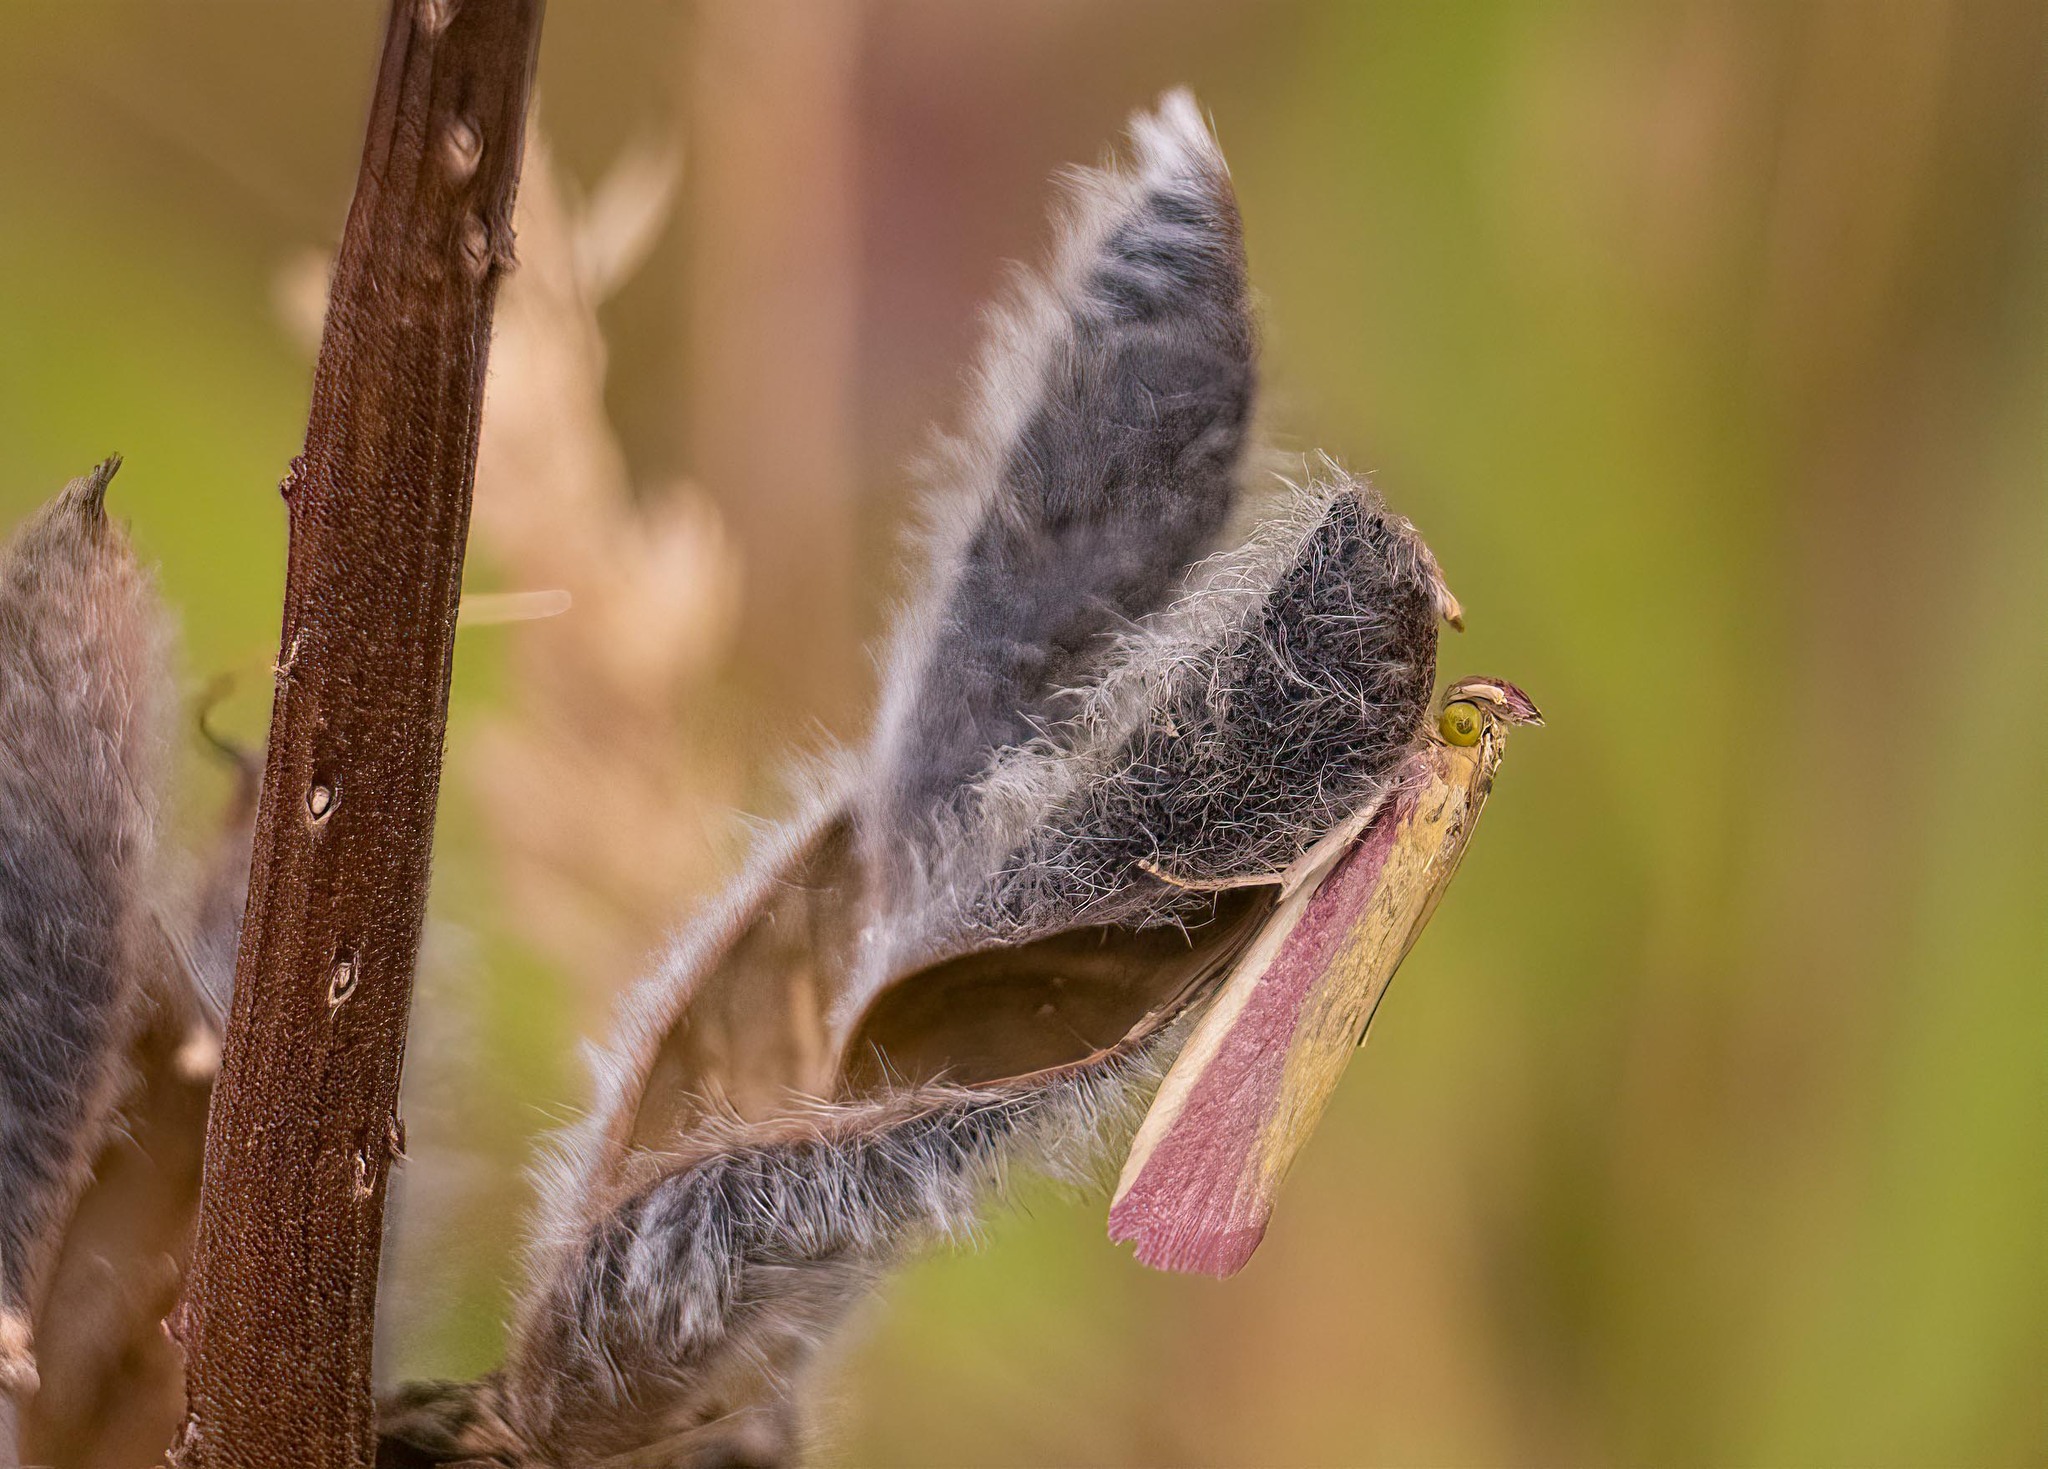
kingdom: Animalia
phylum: Arthropoda
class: Insecta
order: Lepidoptera
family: Pyralidae
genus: Oncocera
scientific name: Oncocera semirubella
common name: Rosy-striped knot-horn
